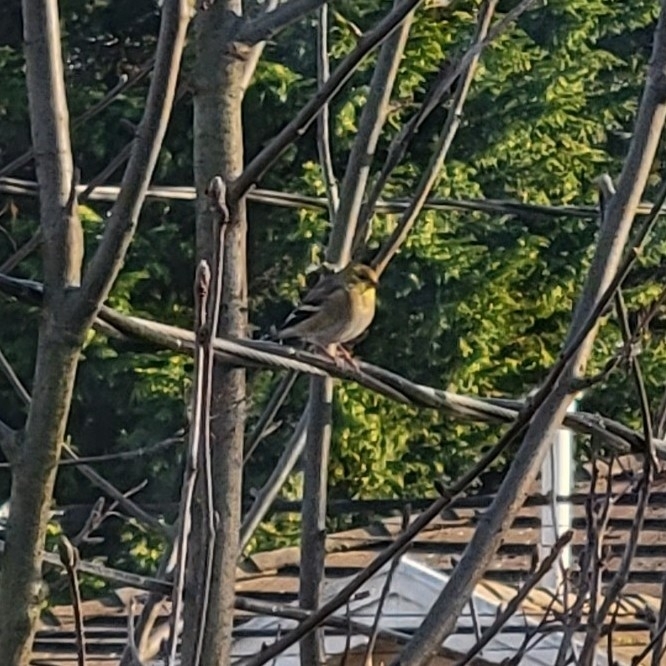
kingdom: Animalia
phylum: Chordata
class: Aves
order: Passeriformes
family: Fringillidae
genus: Spinus
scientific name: Spinus tristis
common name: American goldfinch
